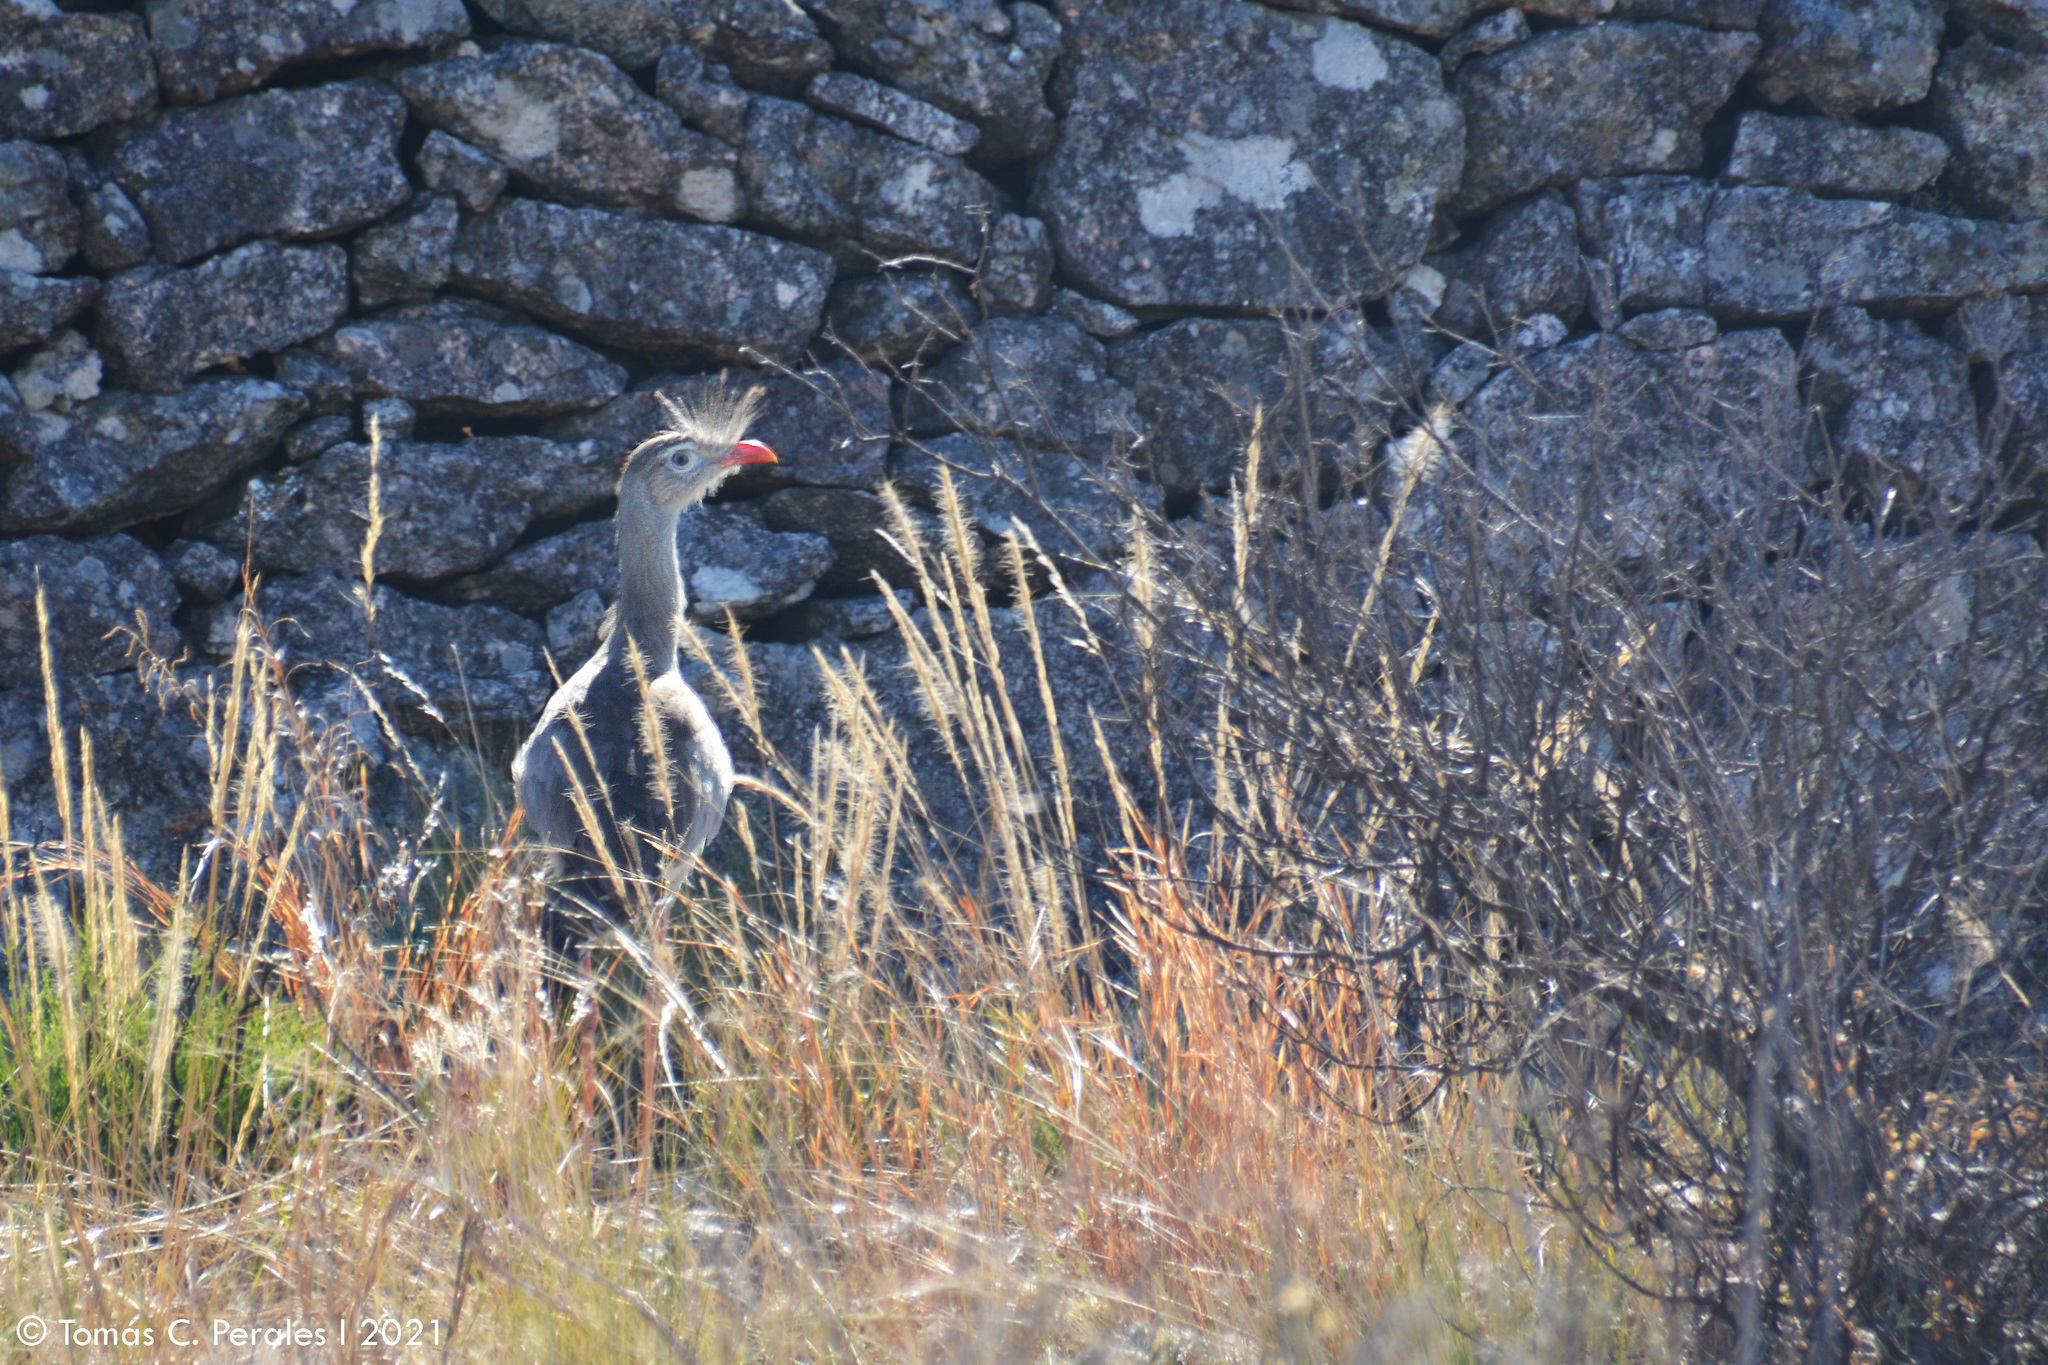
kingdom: Animalia
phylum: Chordata
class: Aves
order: Cariamiformes
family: Cariamidae
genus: Cariama
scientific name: Cariama cristata
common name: Red-legged seriema
